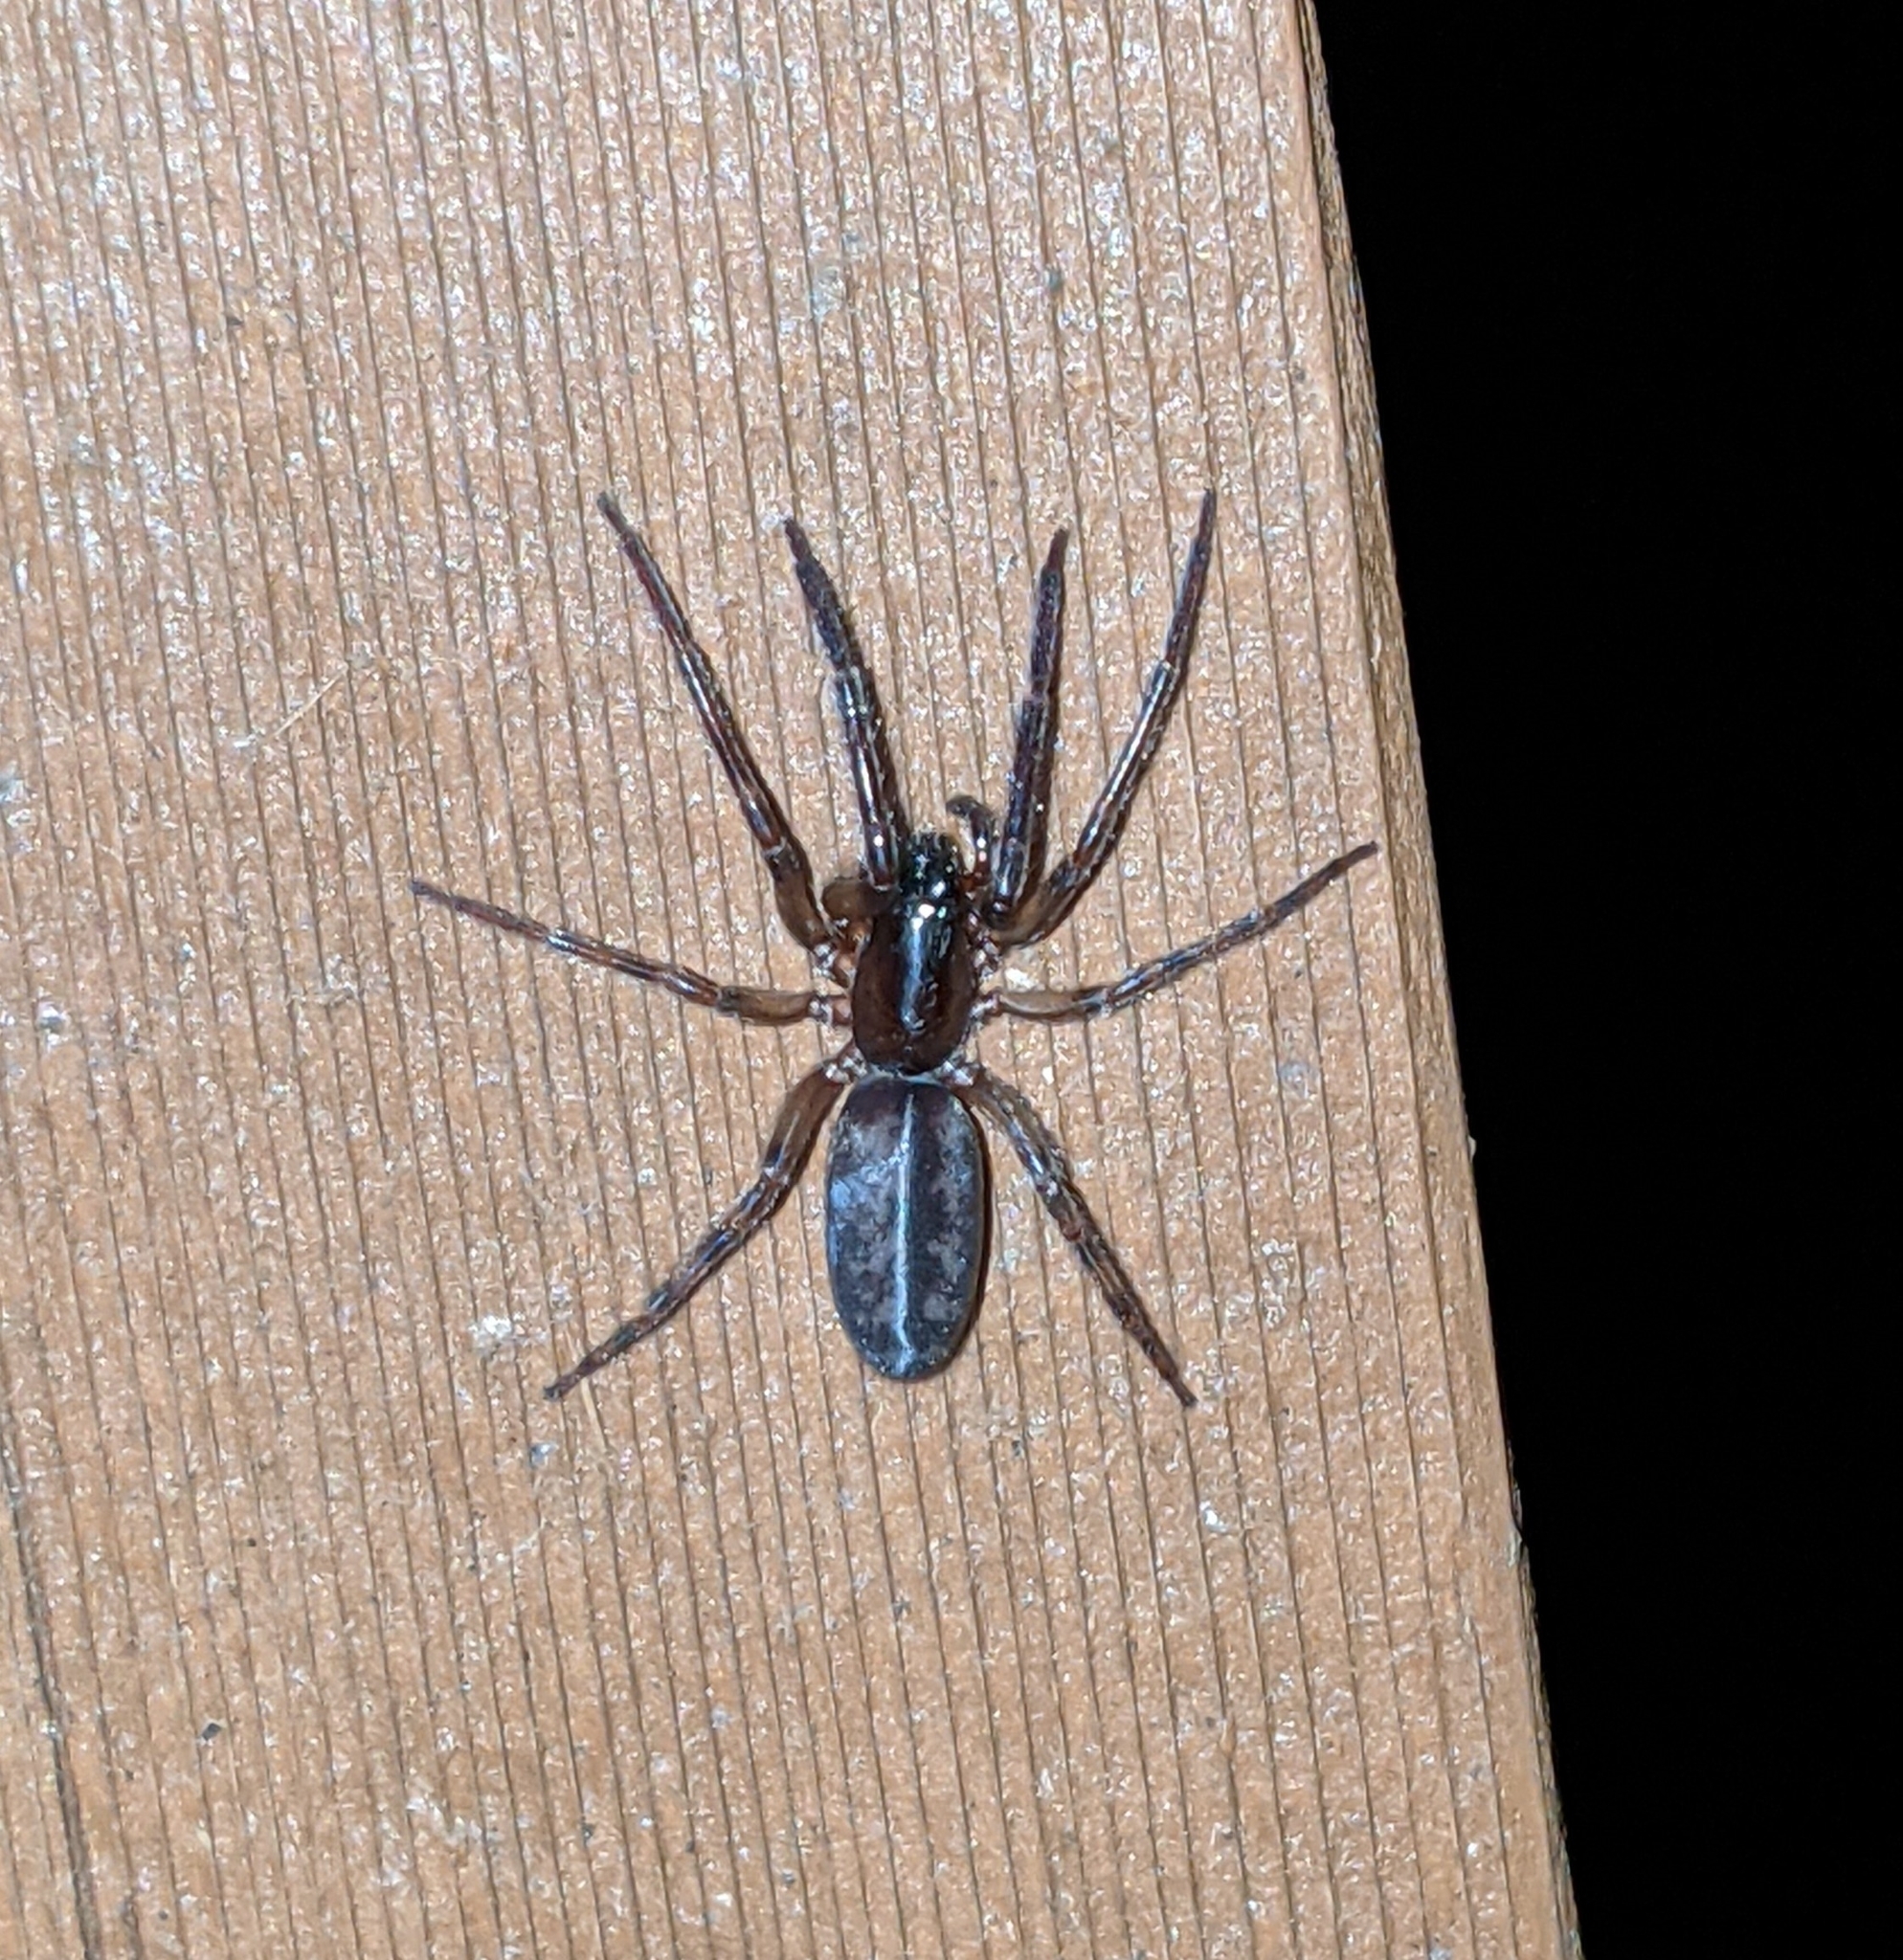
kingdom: Animalia
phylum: Arthropoda
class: Arachnida
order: Araneae
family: Segestriidae
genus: Segestria
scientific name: Segestria pacifica
